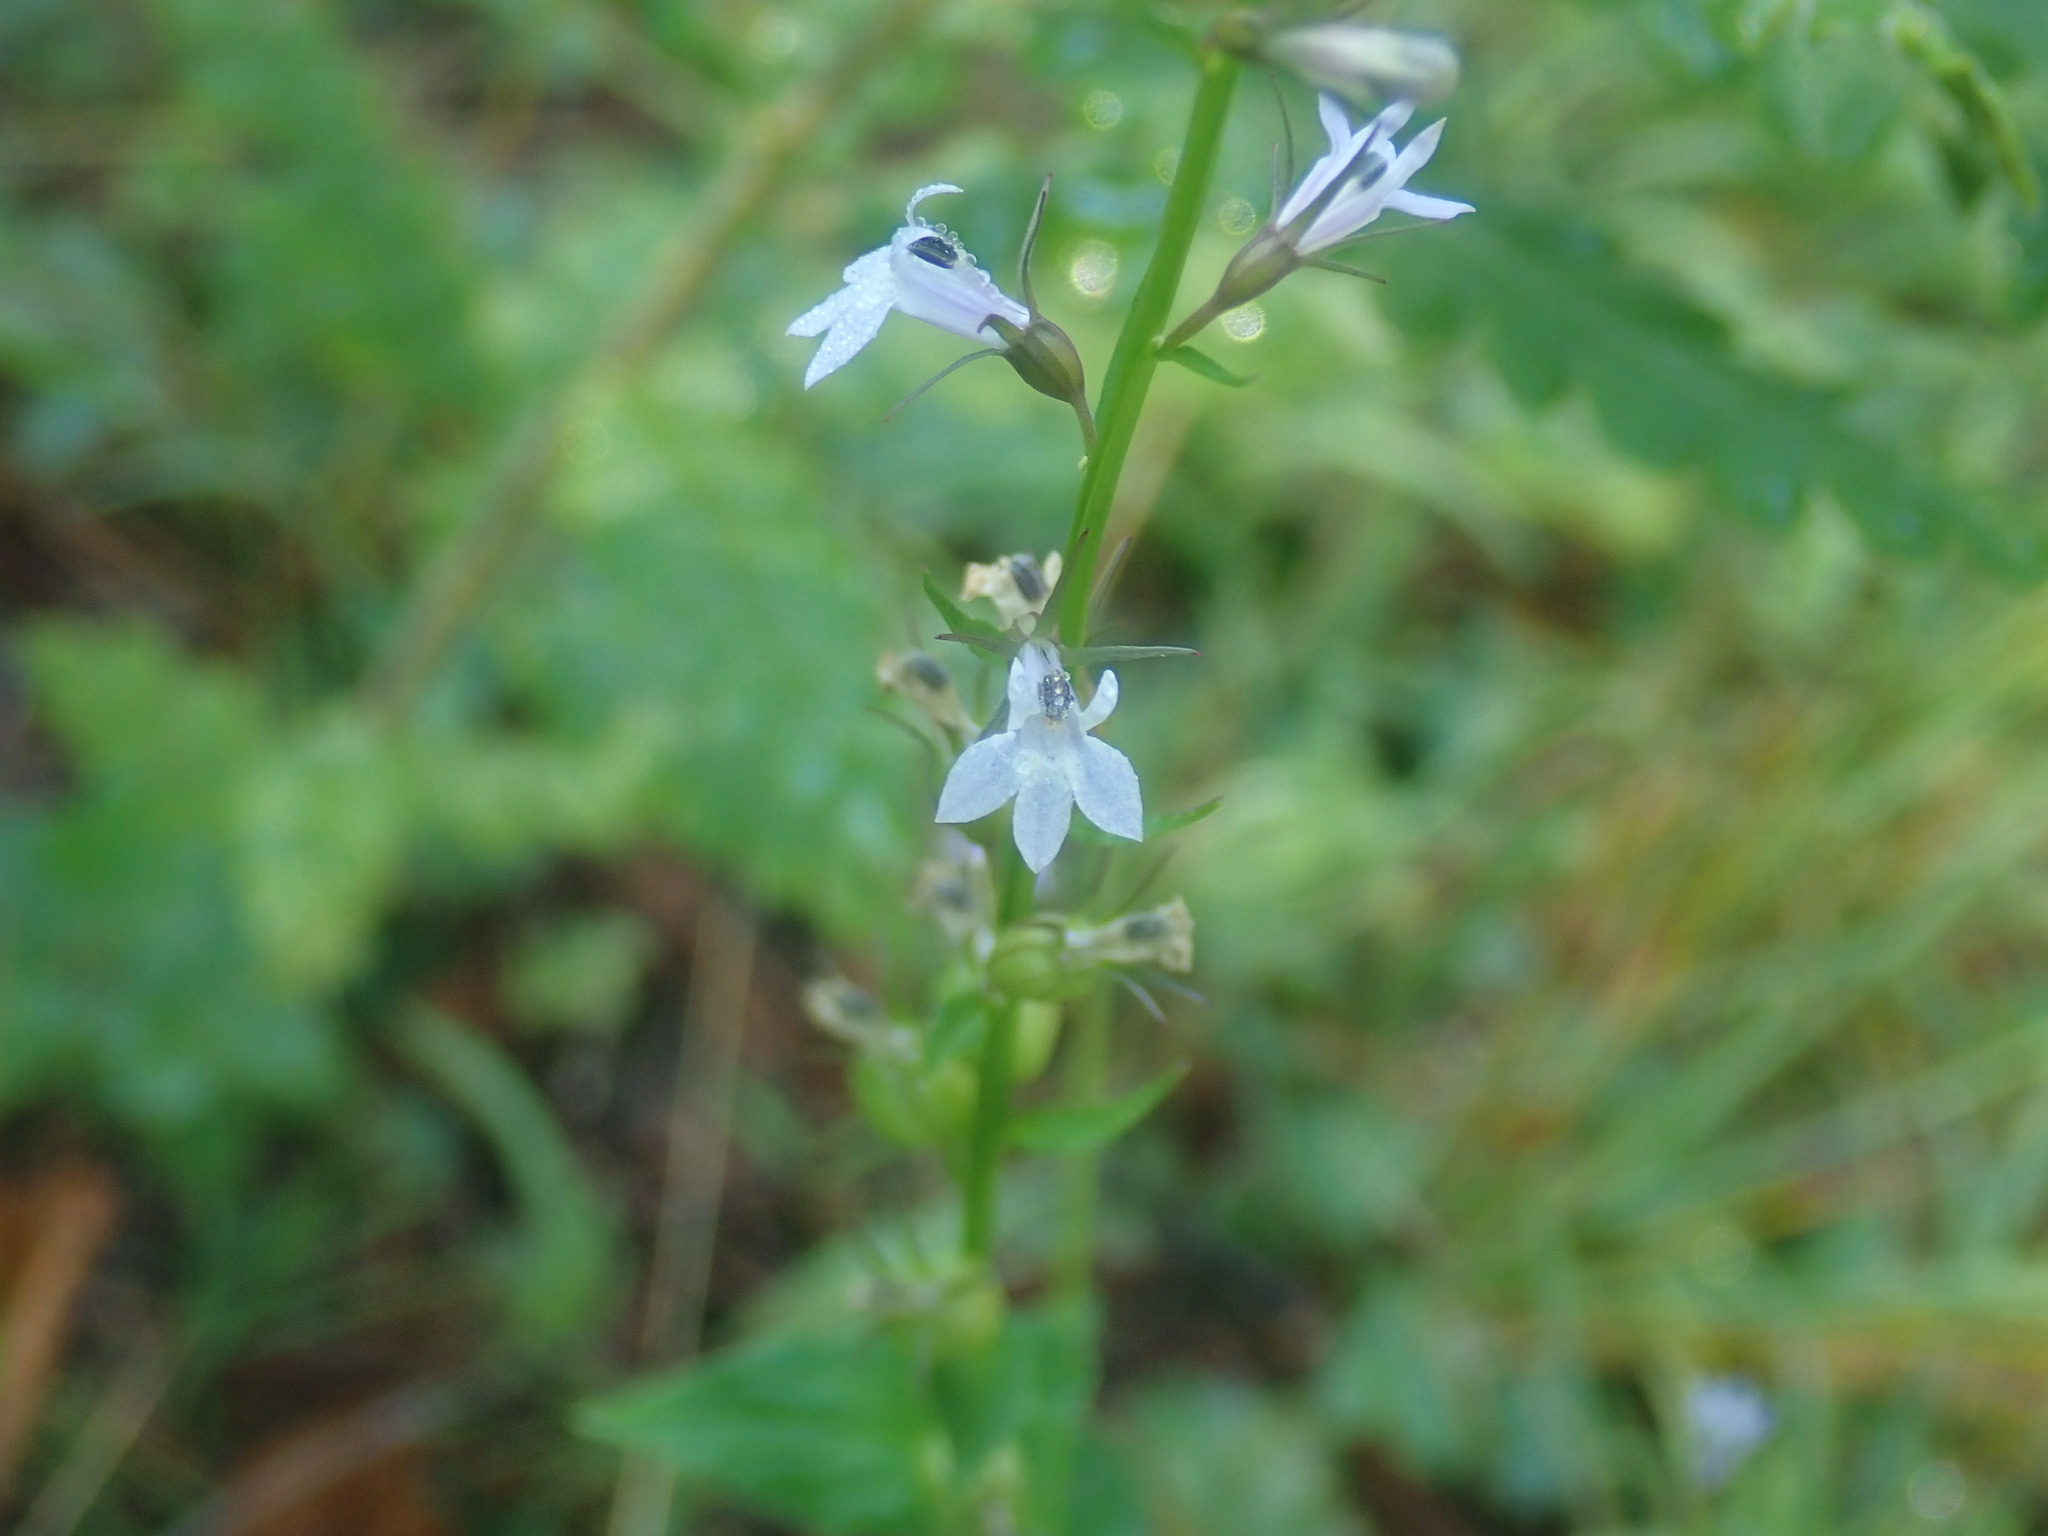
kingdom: Plantae
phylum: Tracheophyta
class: Magnoliopsida
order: Asterales
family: Campanulaceae
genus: Lobelia
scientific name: Lobelia inflata
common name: Indian tobacco
